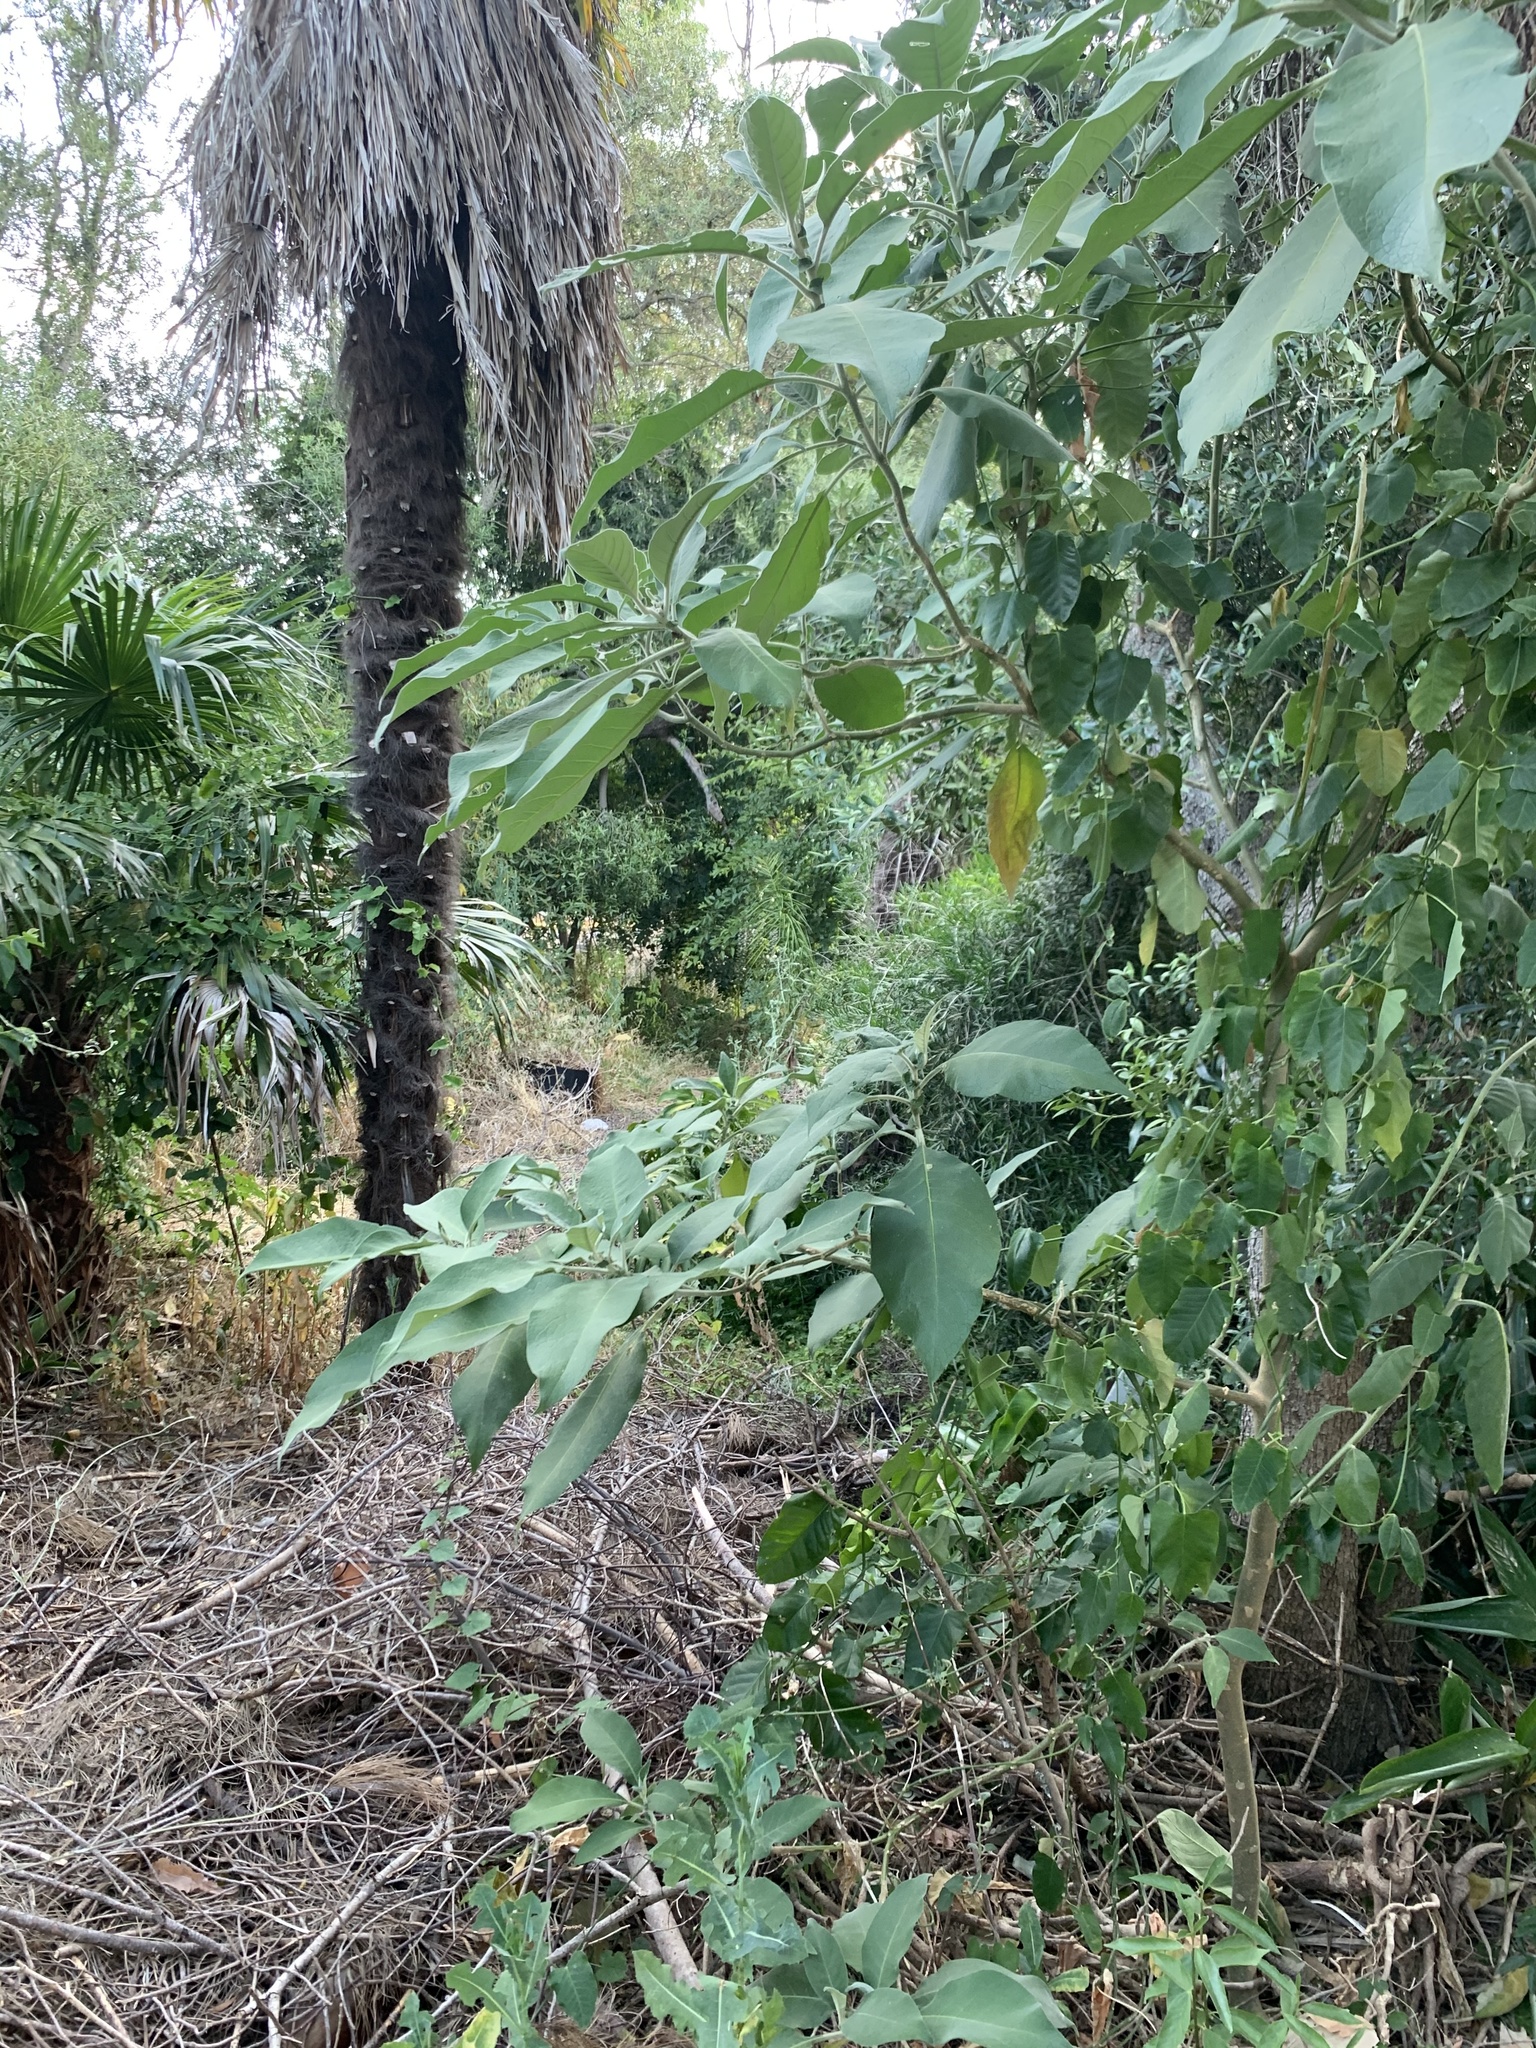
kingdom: Plantae
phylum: Tracheophyta
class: Magnoliopsida
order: Solanales
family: Solanaceae
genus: Solanum
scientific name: Solanum mauritianum
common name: Earleaf nightshade
